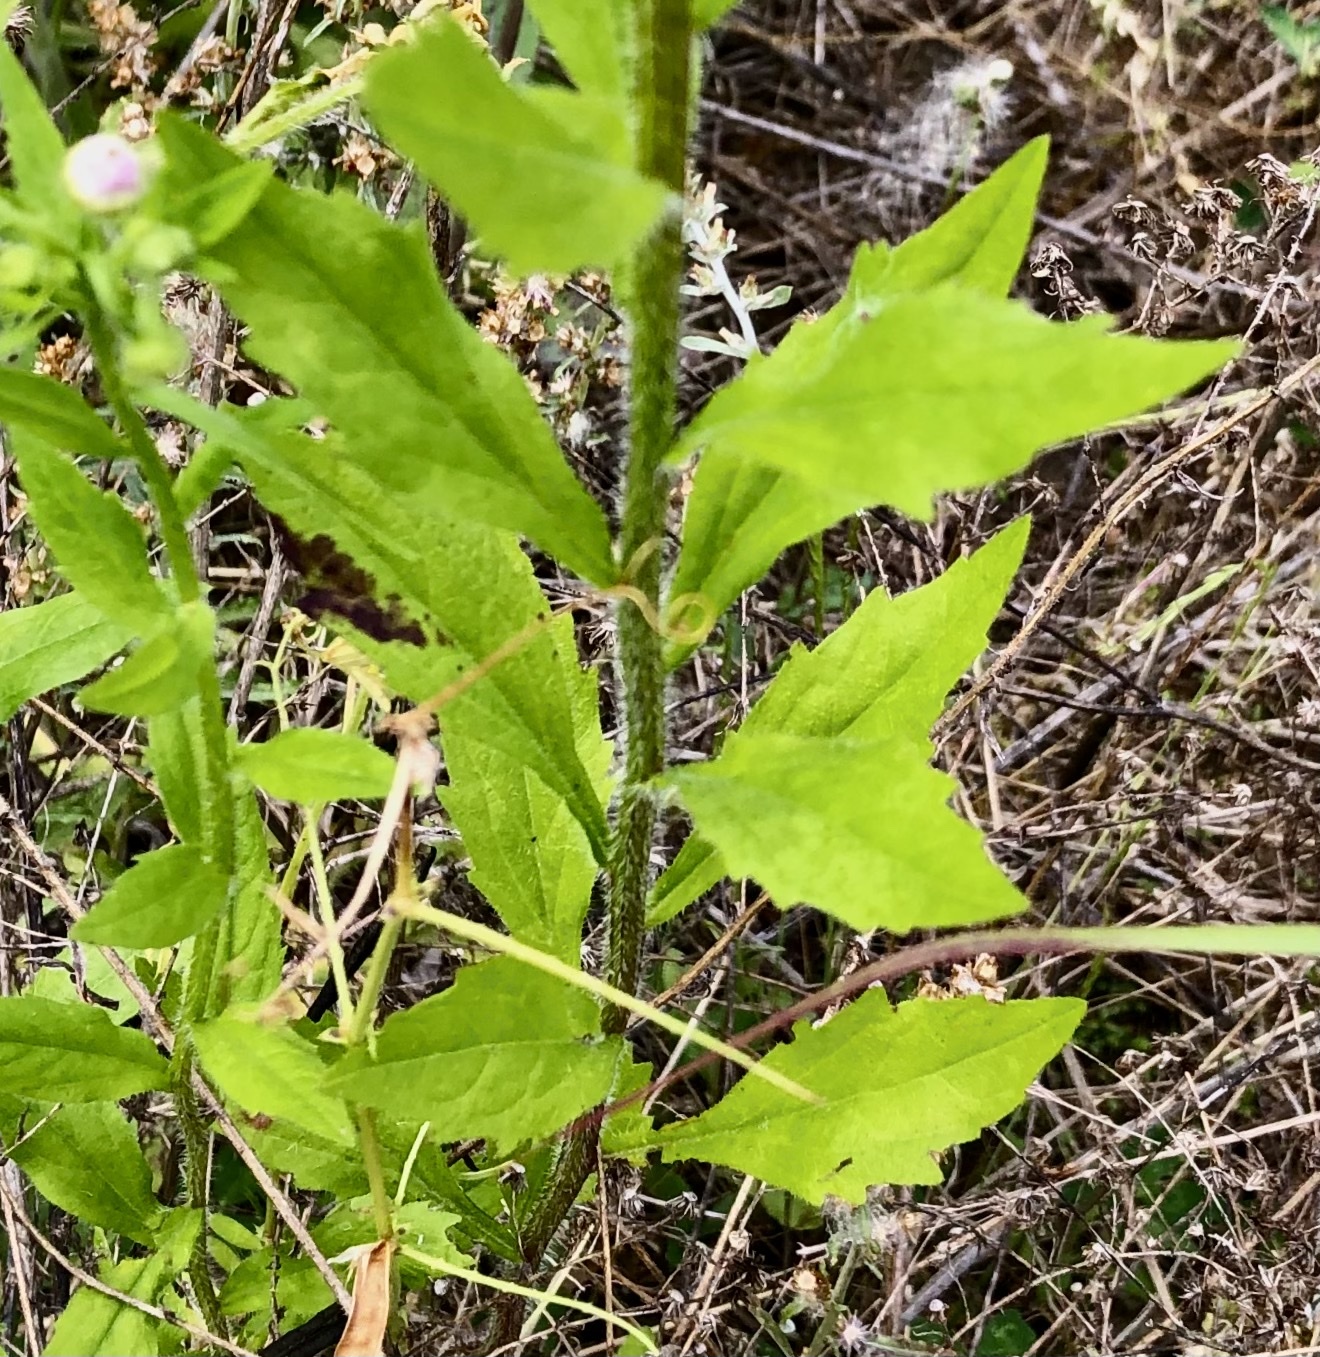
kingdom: Plantae
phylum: Tracheophyta
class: Magnoliopsida
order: Asterales
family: Asteraceae
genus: Erigeron
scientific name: Erigeron annuus
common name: Tall fleabane
